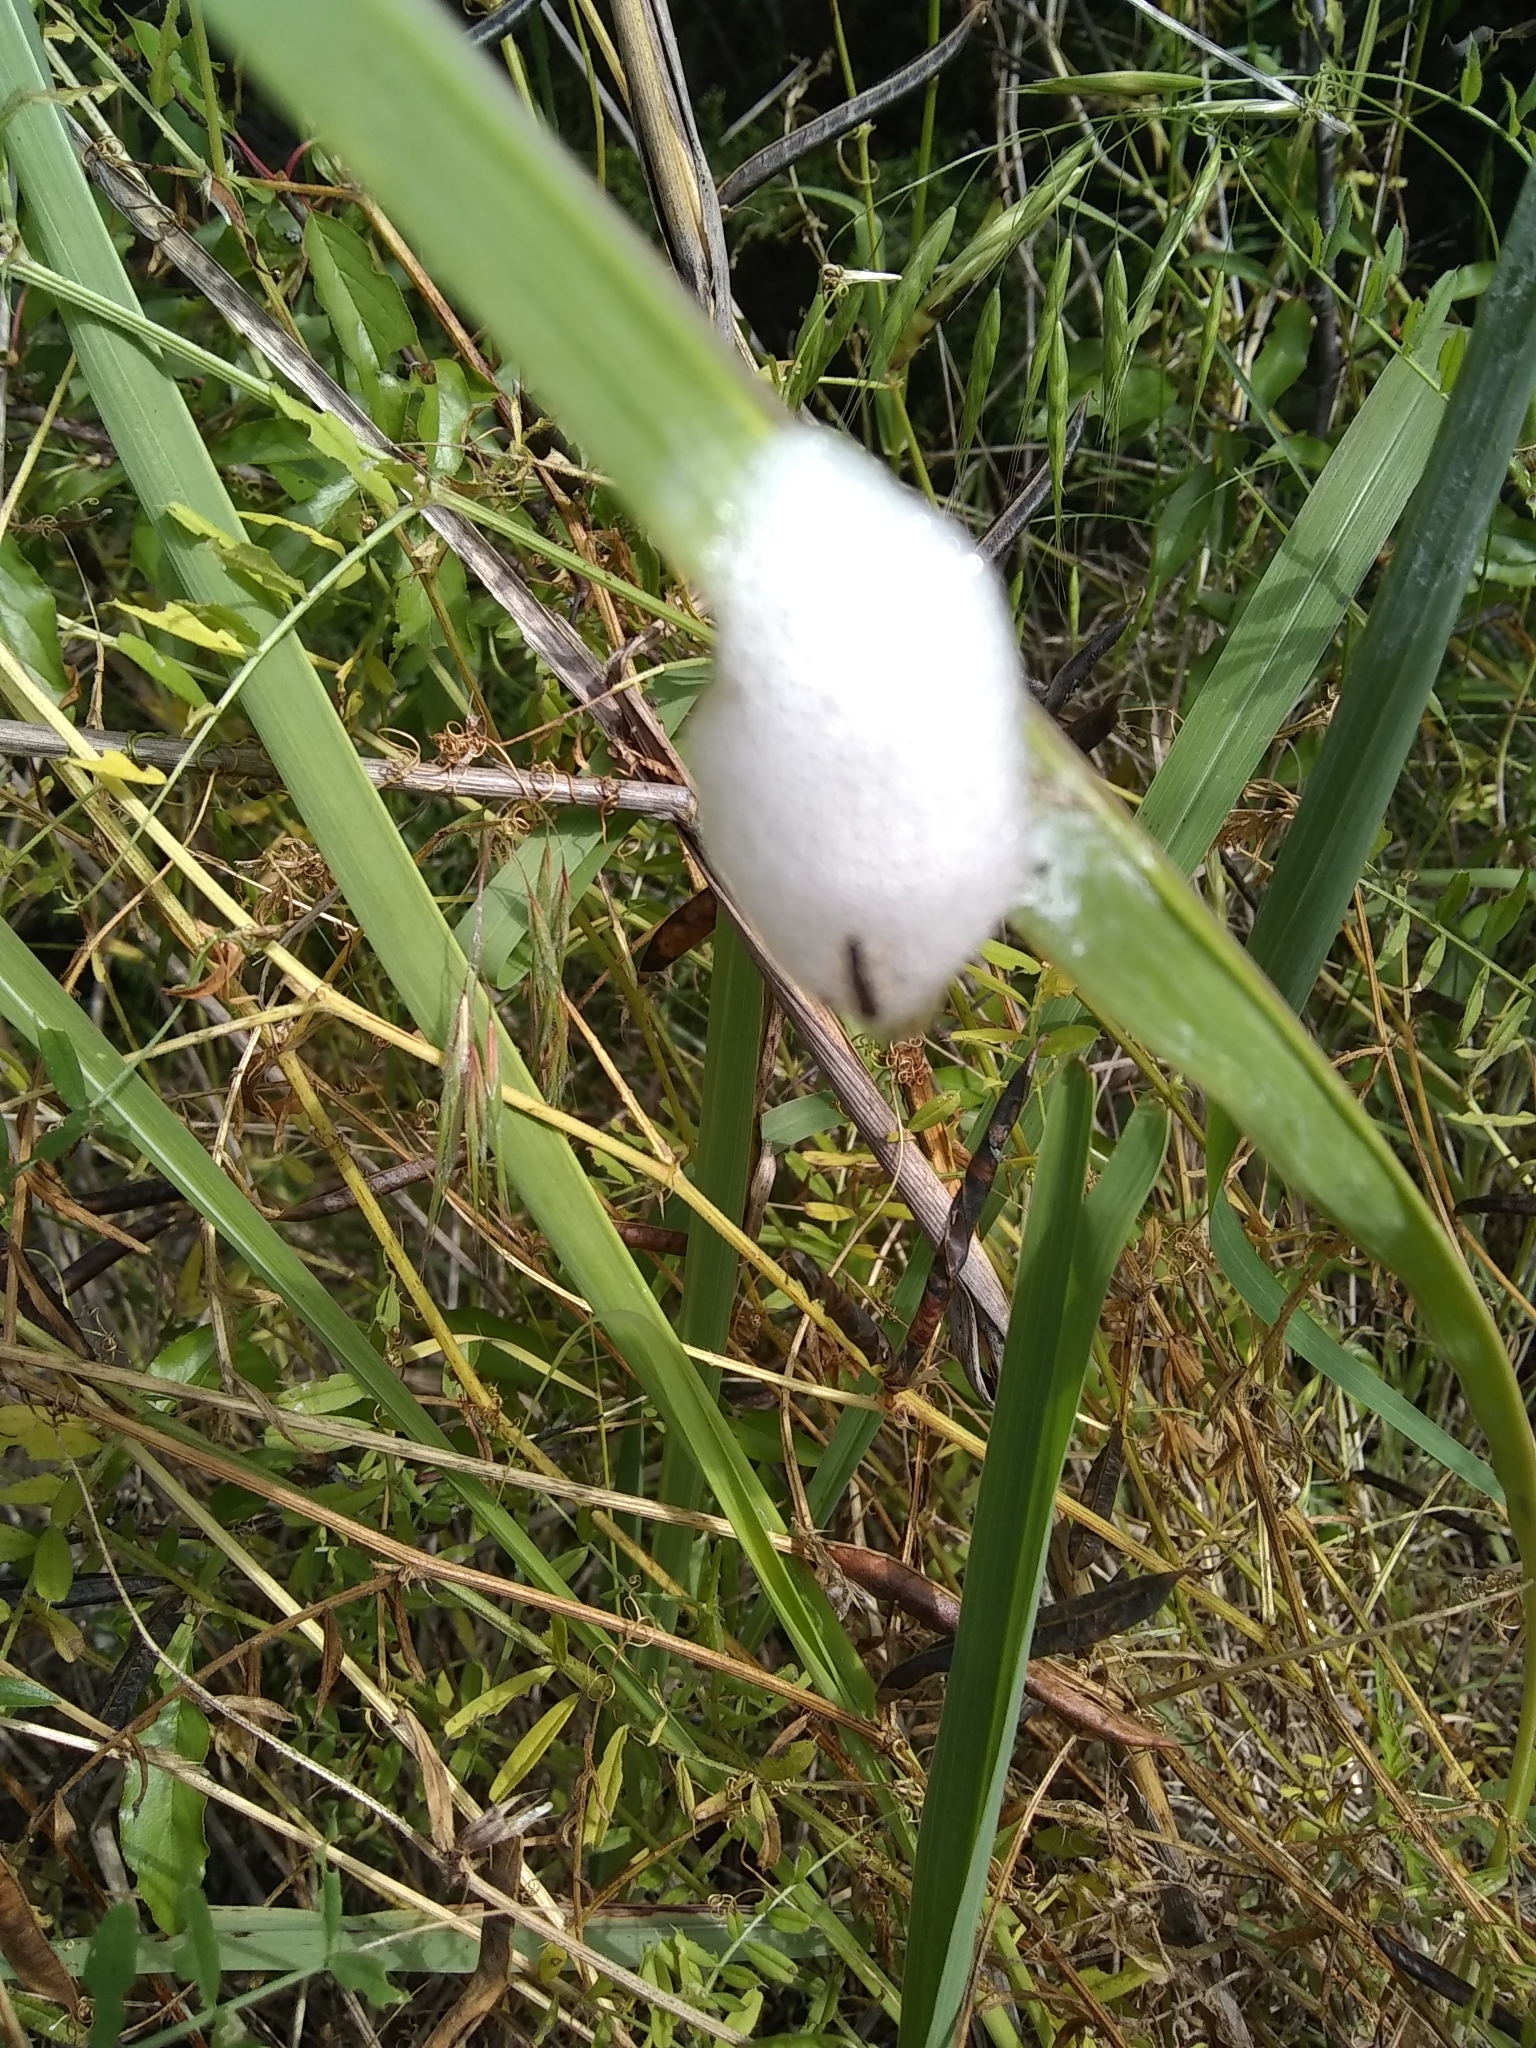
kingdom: Animalia
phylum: Arthropoda
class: Insecta
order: Hemiptera
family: Aphrophoridae
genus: Lepyronia
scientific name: Lepyronia gibbosa
